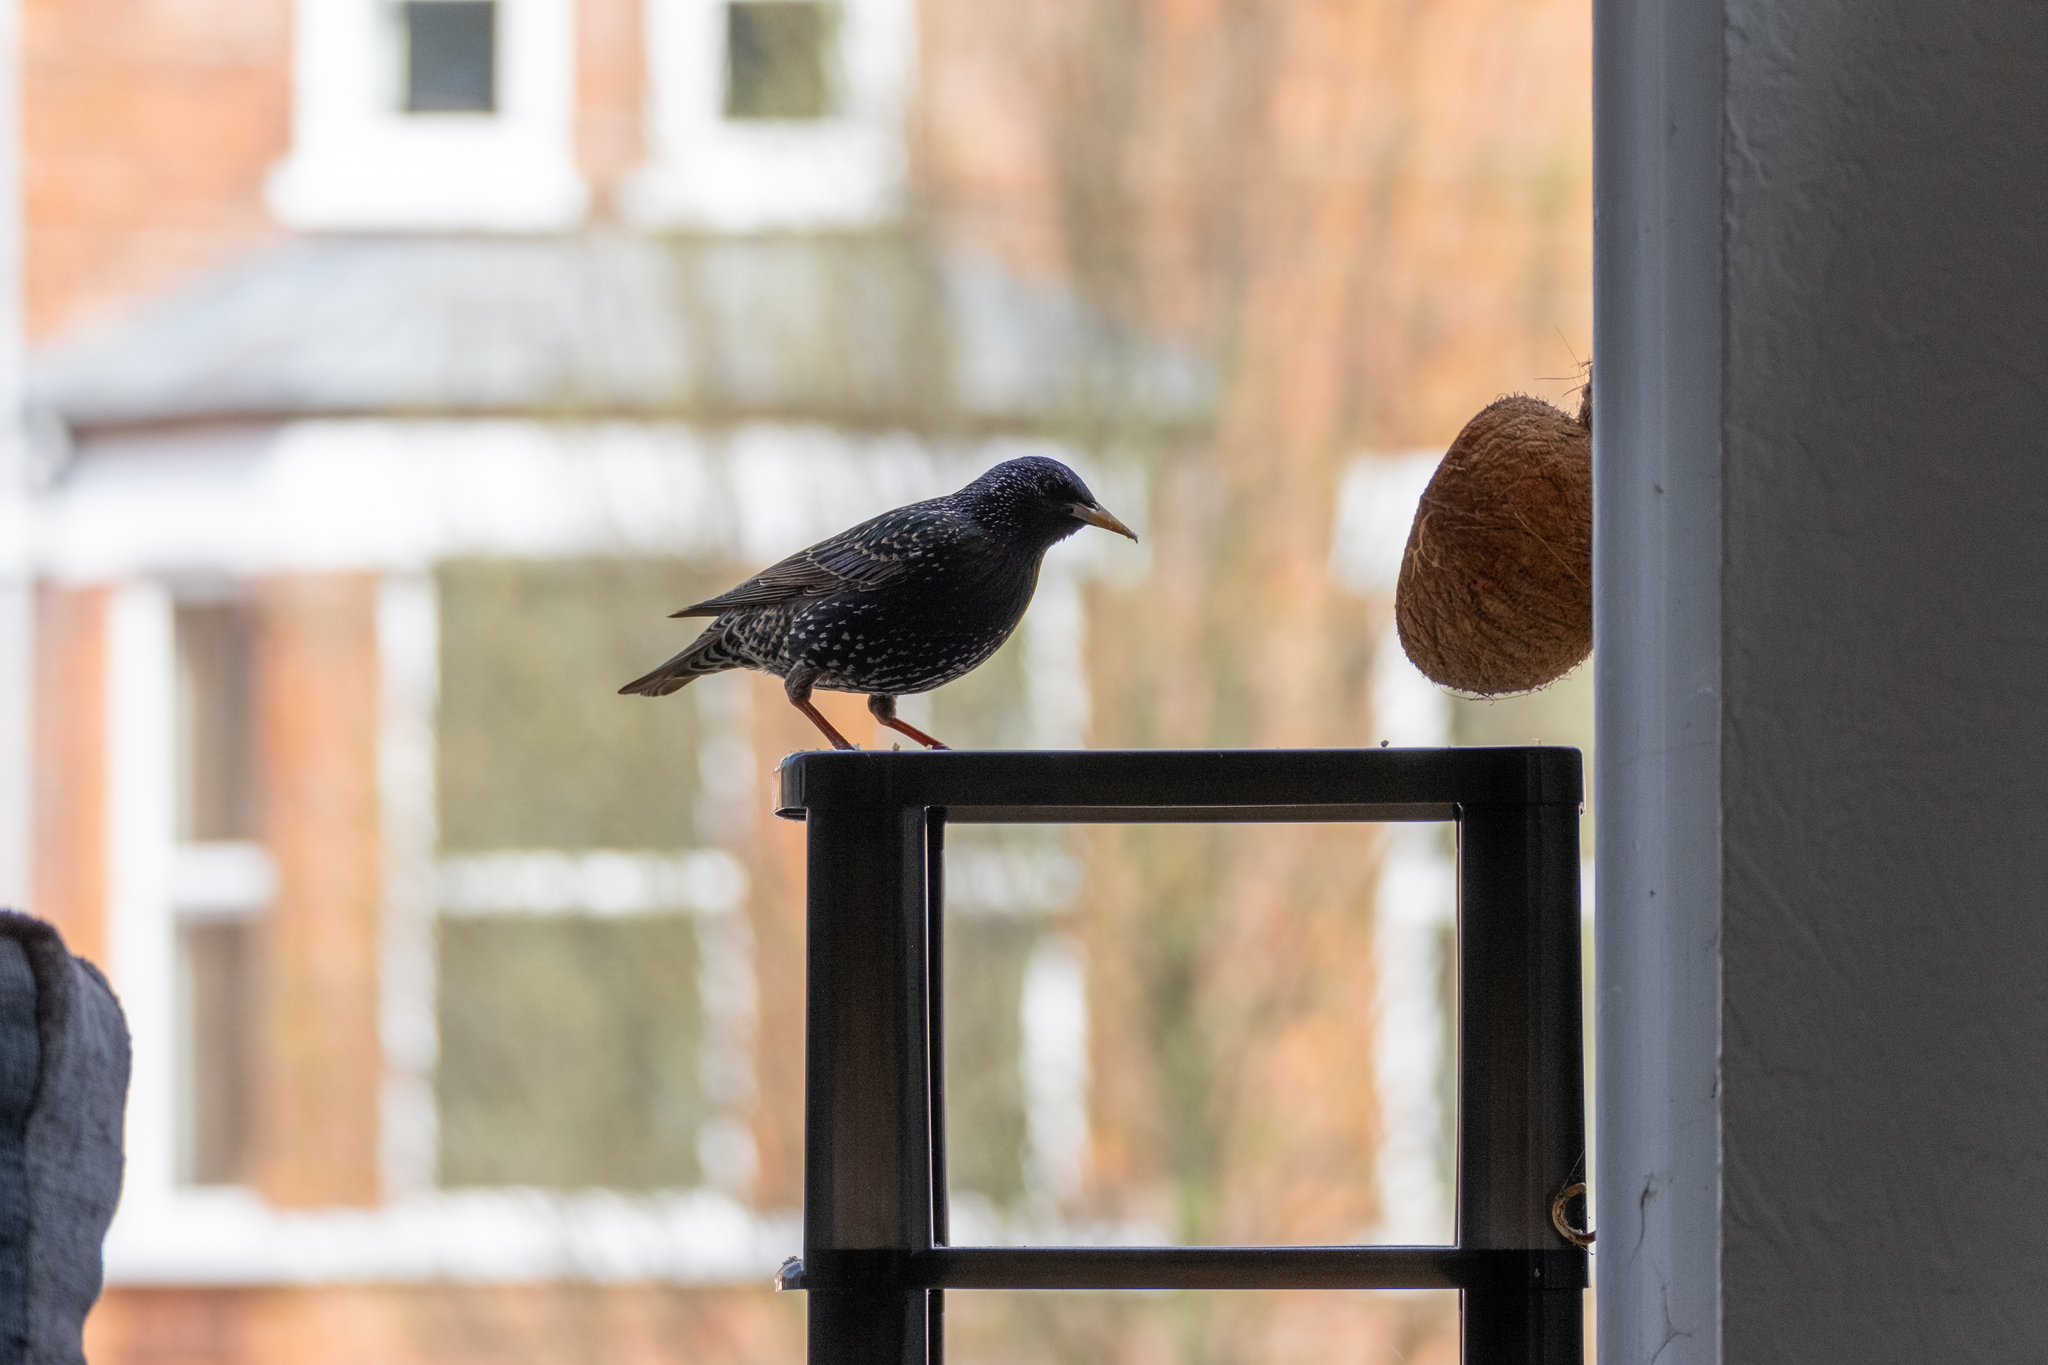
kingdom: Animalia
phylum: Chordata
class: Aves
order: Passeriformes
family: Sturnidae
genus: Sturnus
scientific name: Sturnus vulgaris
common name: Common starling
